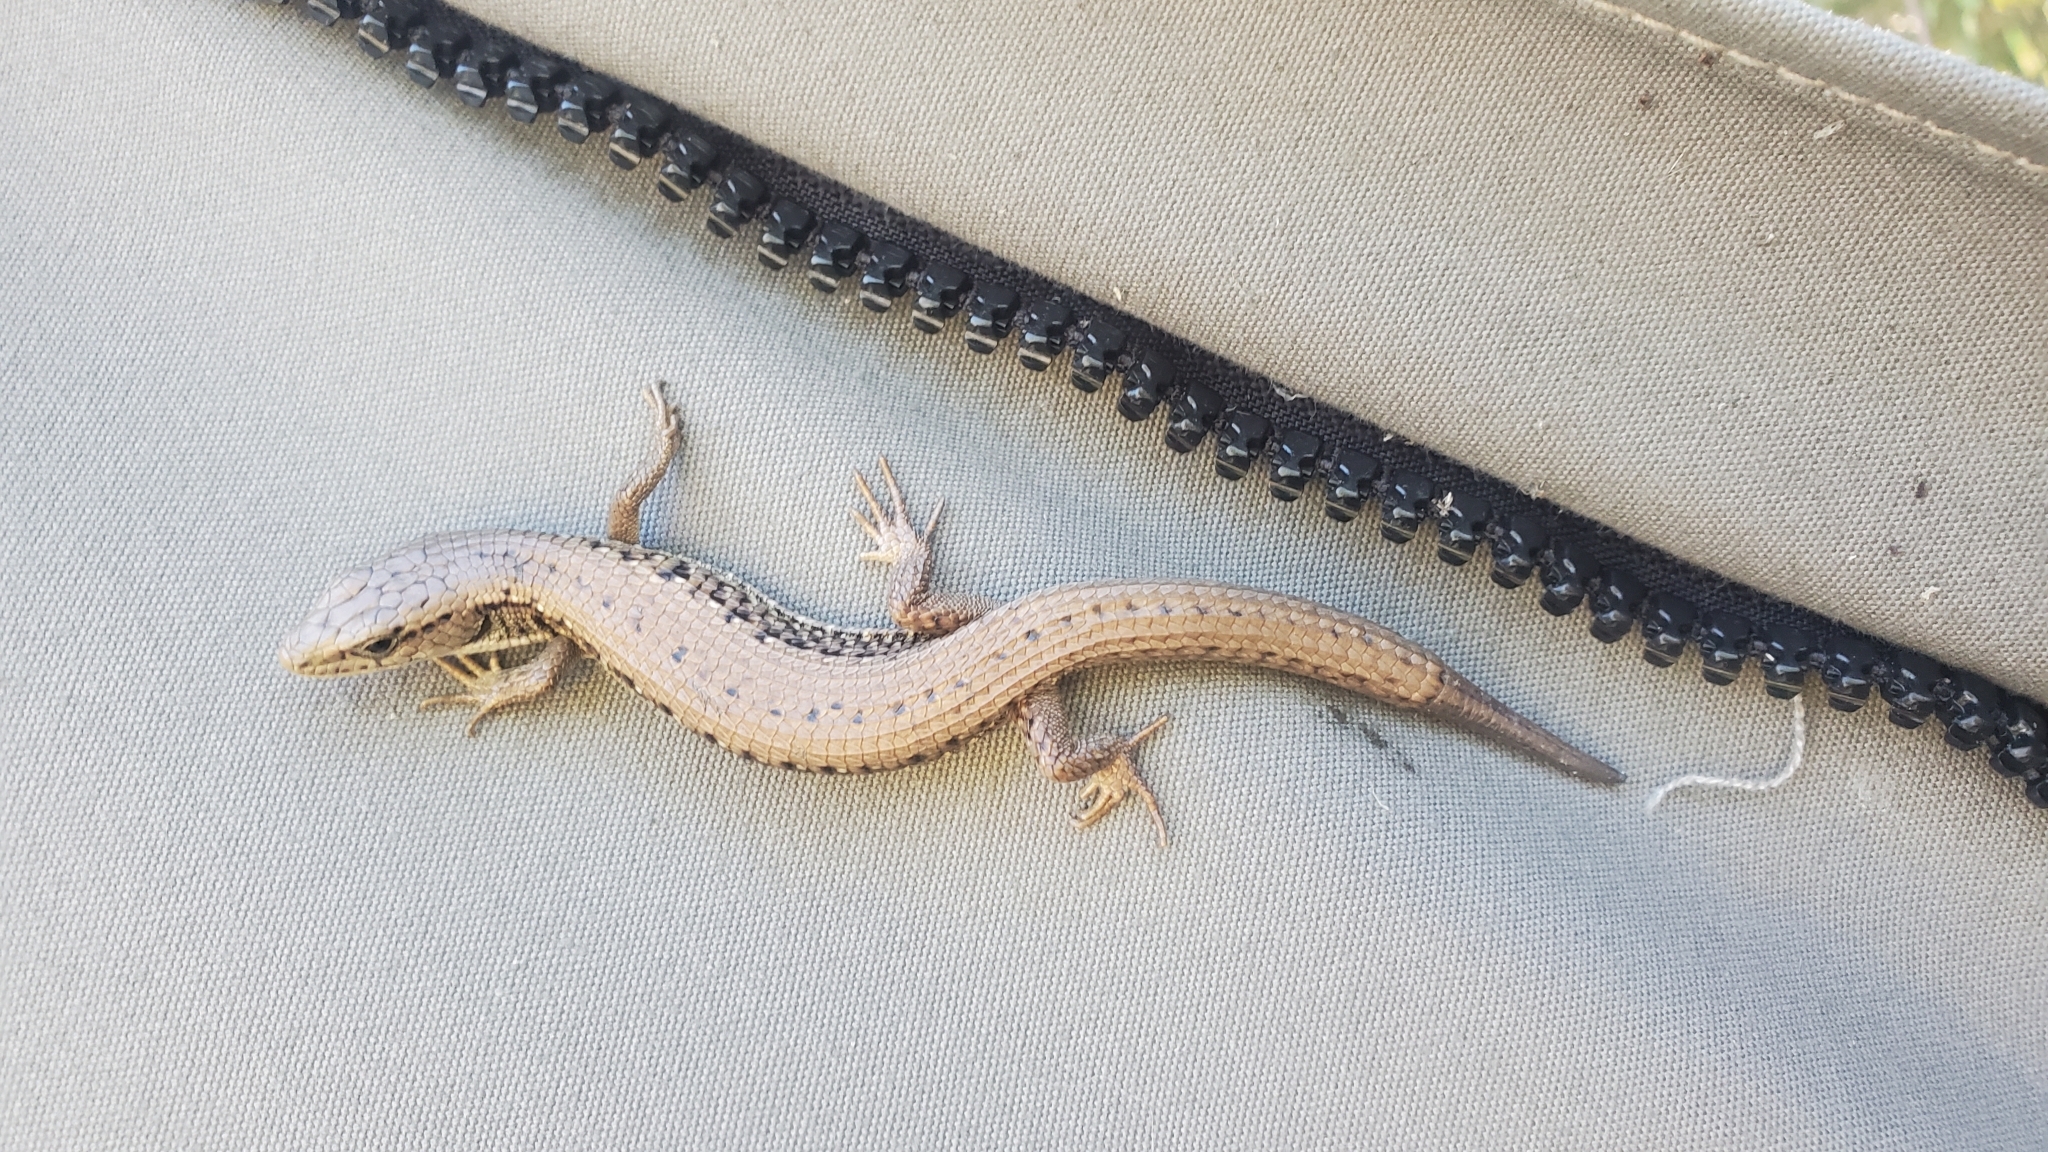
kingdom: Animalia
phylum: Chordata
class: Squamata
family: Anguidae
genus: Elgaria
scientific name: Elgaria coerulea
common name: Northern alligator lizard
